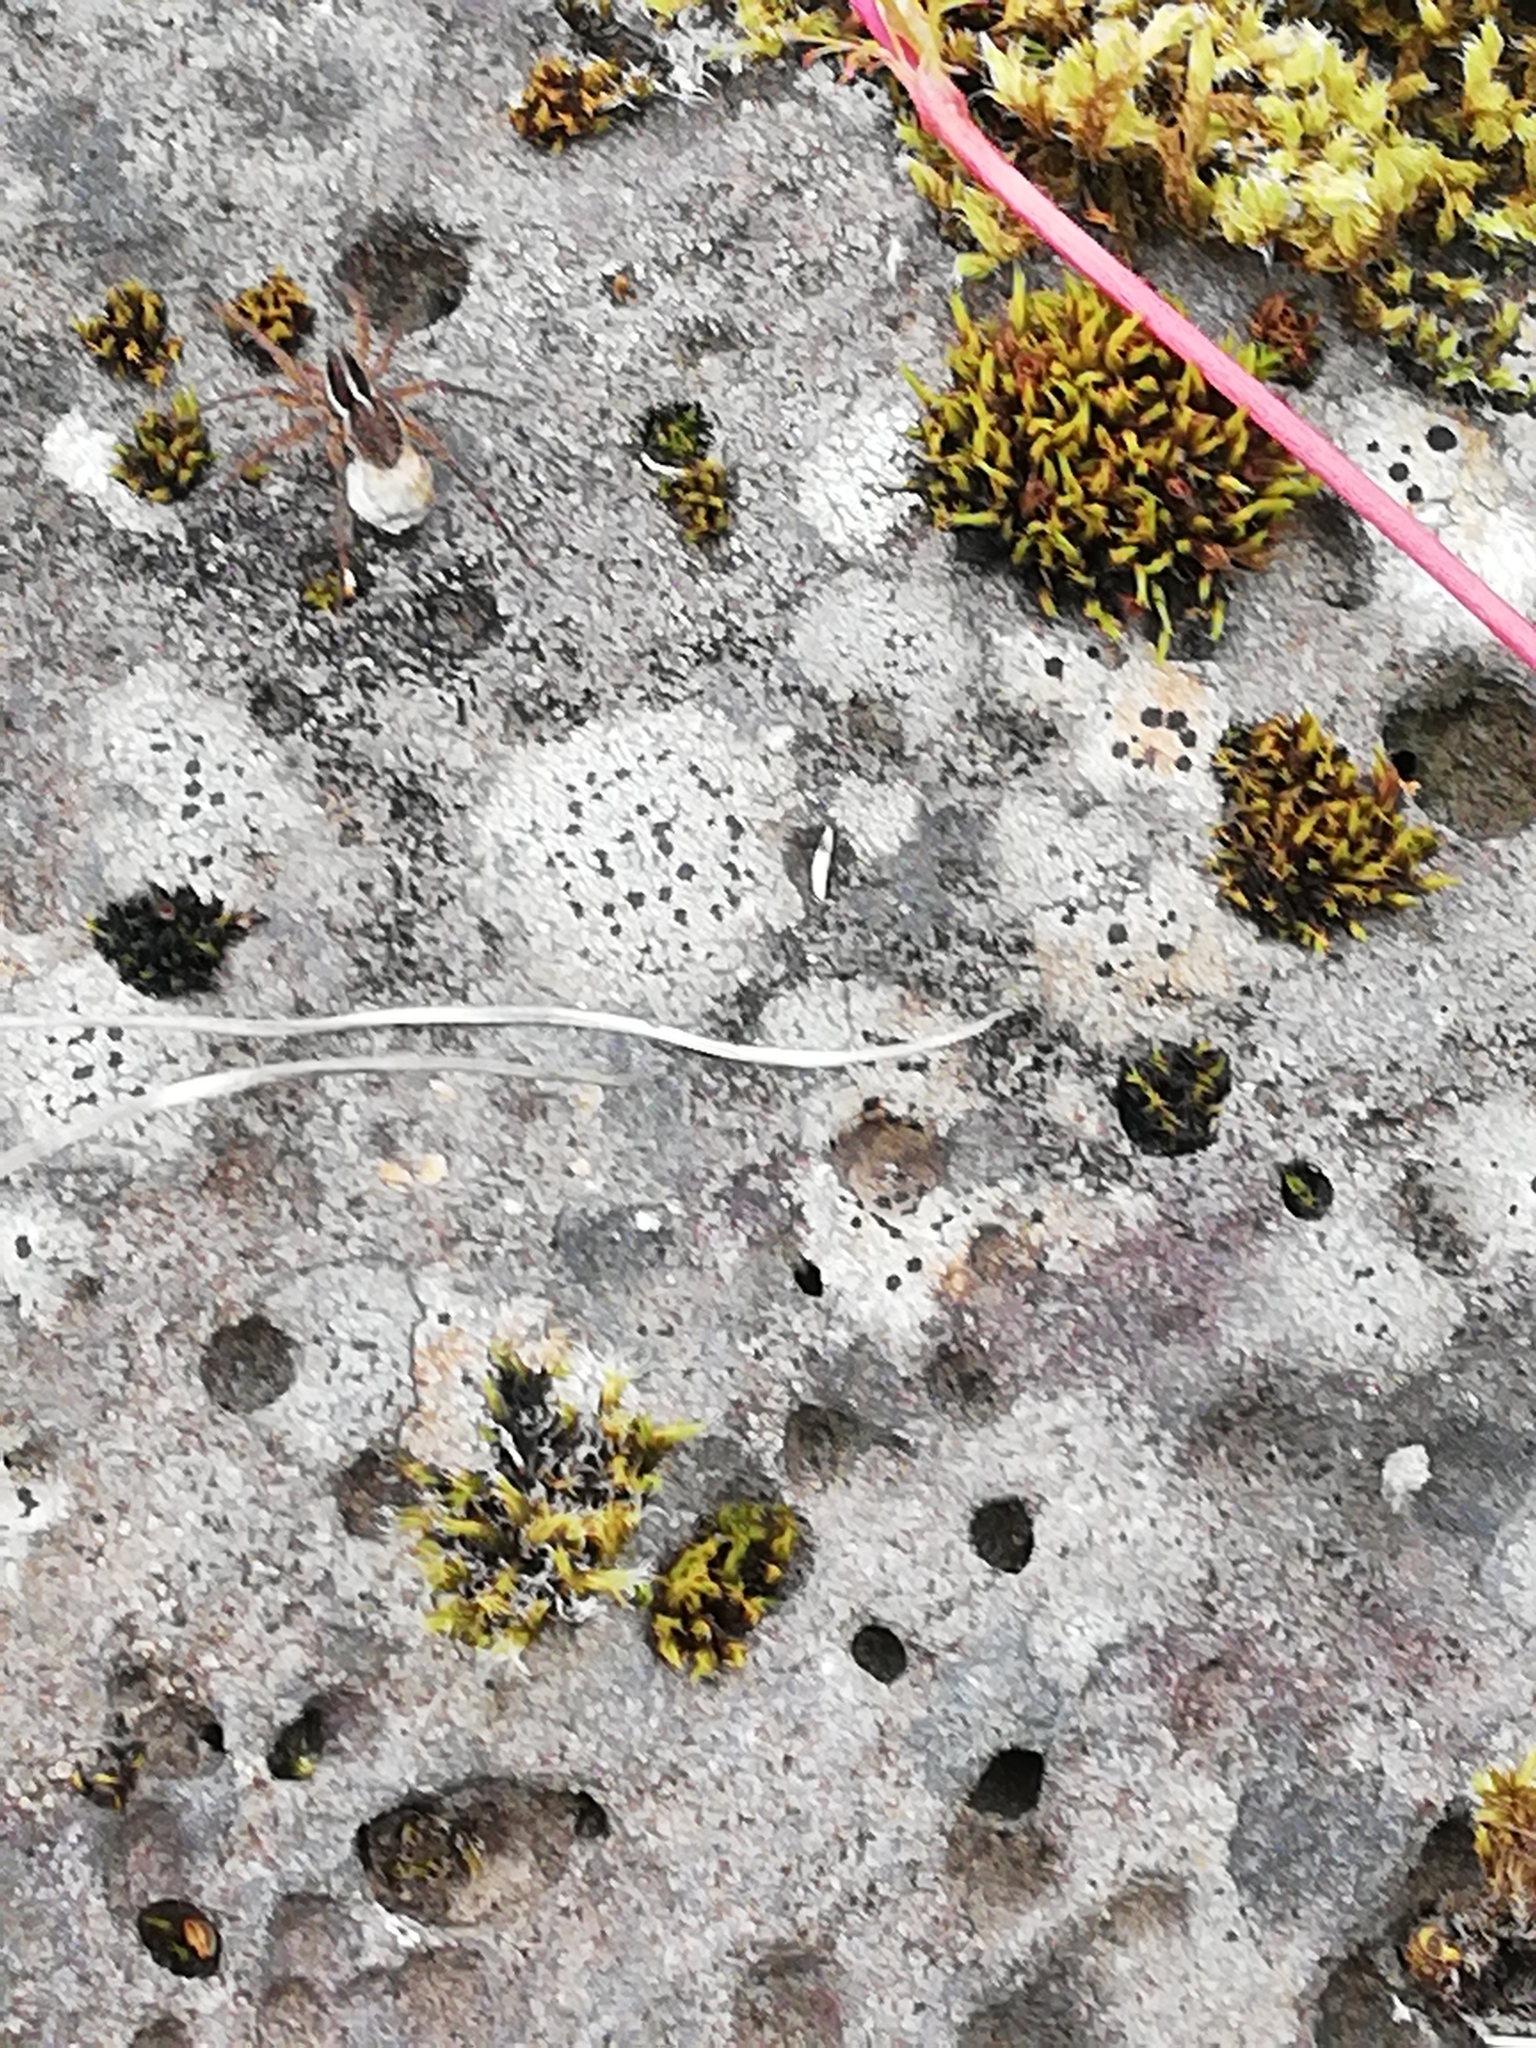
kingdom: Animalia
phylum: Arthropoda
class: Arachnida
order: Araneae
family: Lycosidae
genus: Pardosa
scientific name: Pardosa palustris
